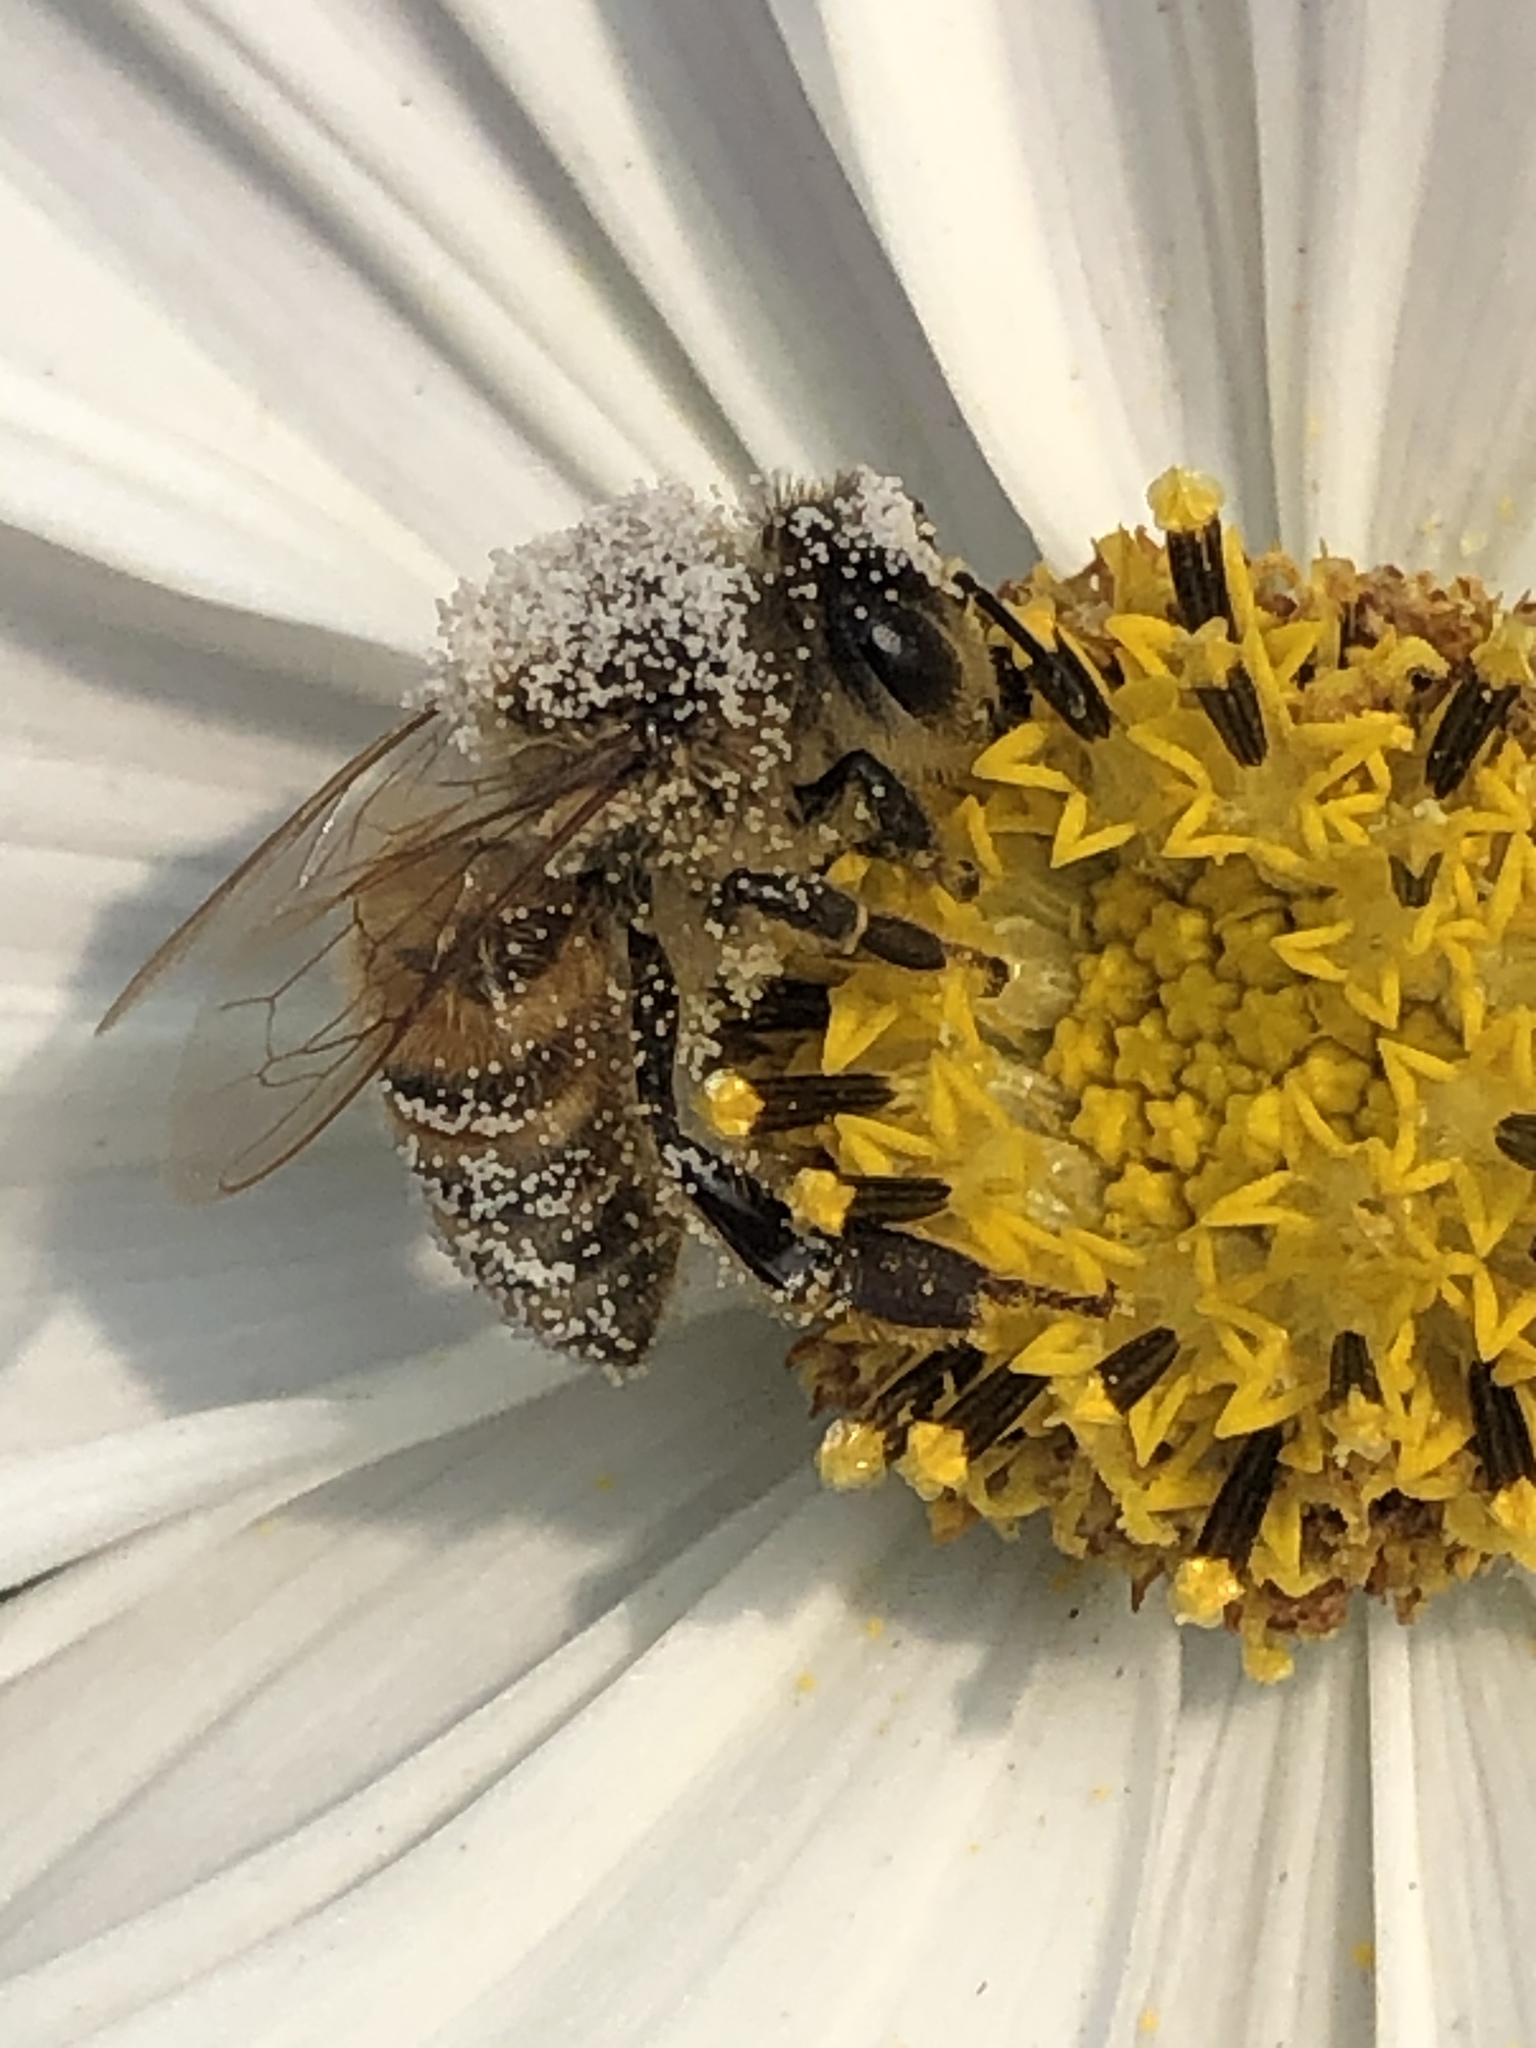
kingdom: Animalia
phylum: Arthropoda
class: Insecta
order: Hymenoptera
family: Apidae
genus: Apis
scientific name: Apis mellifera
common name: Honey bee
